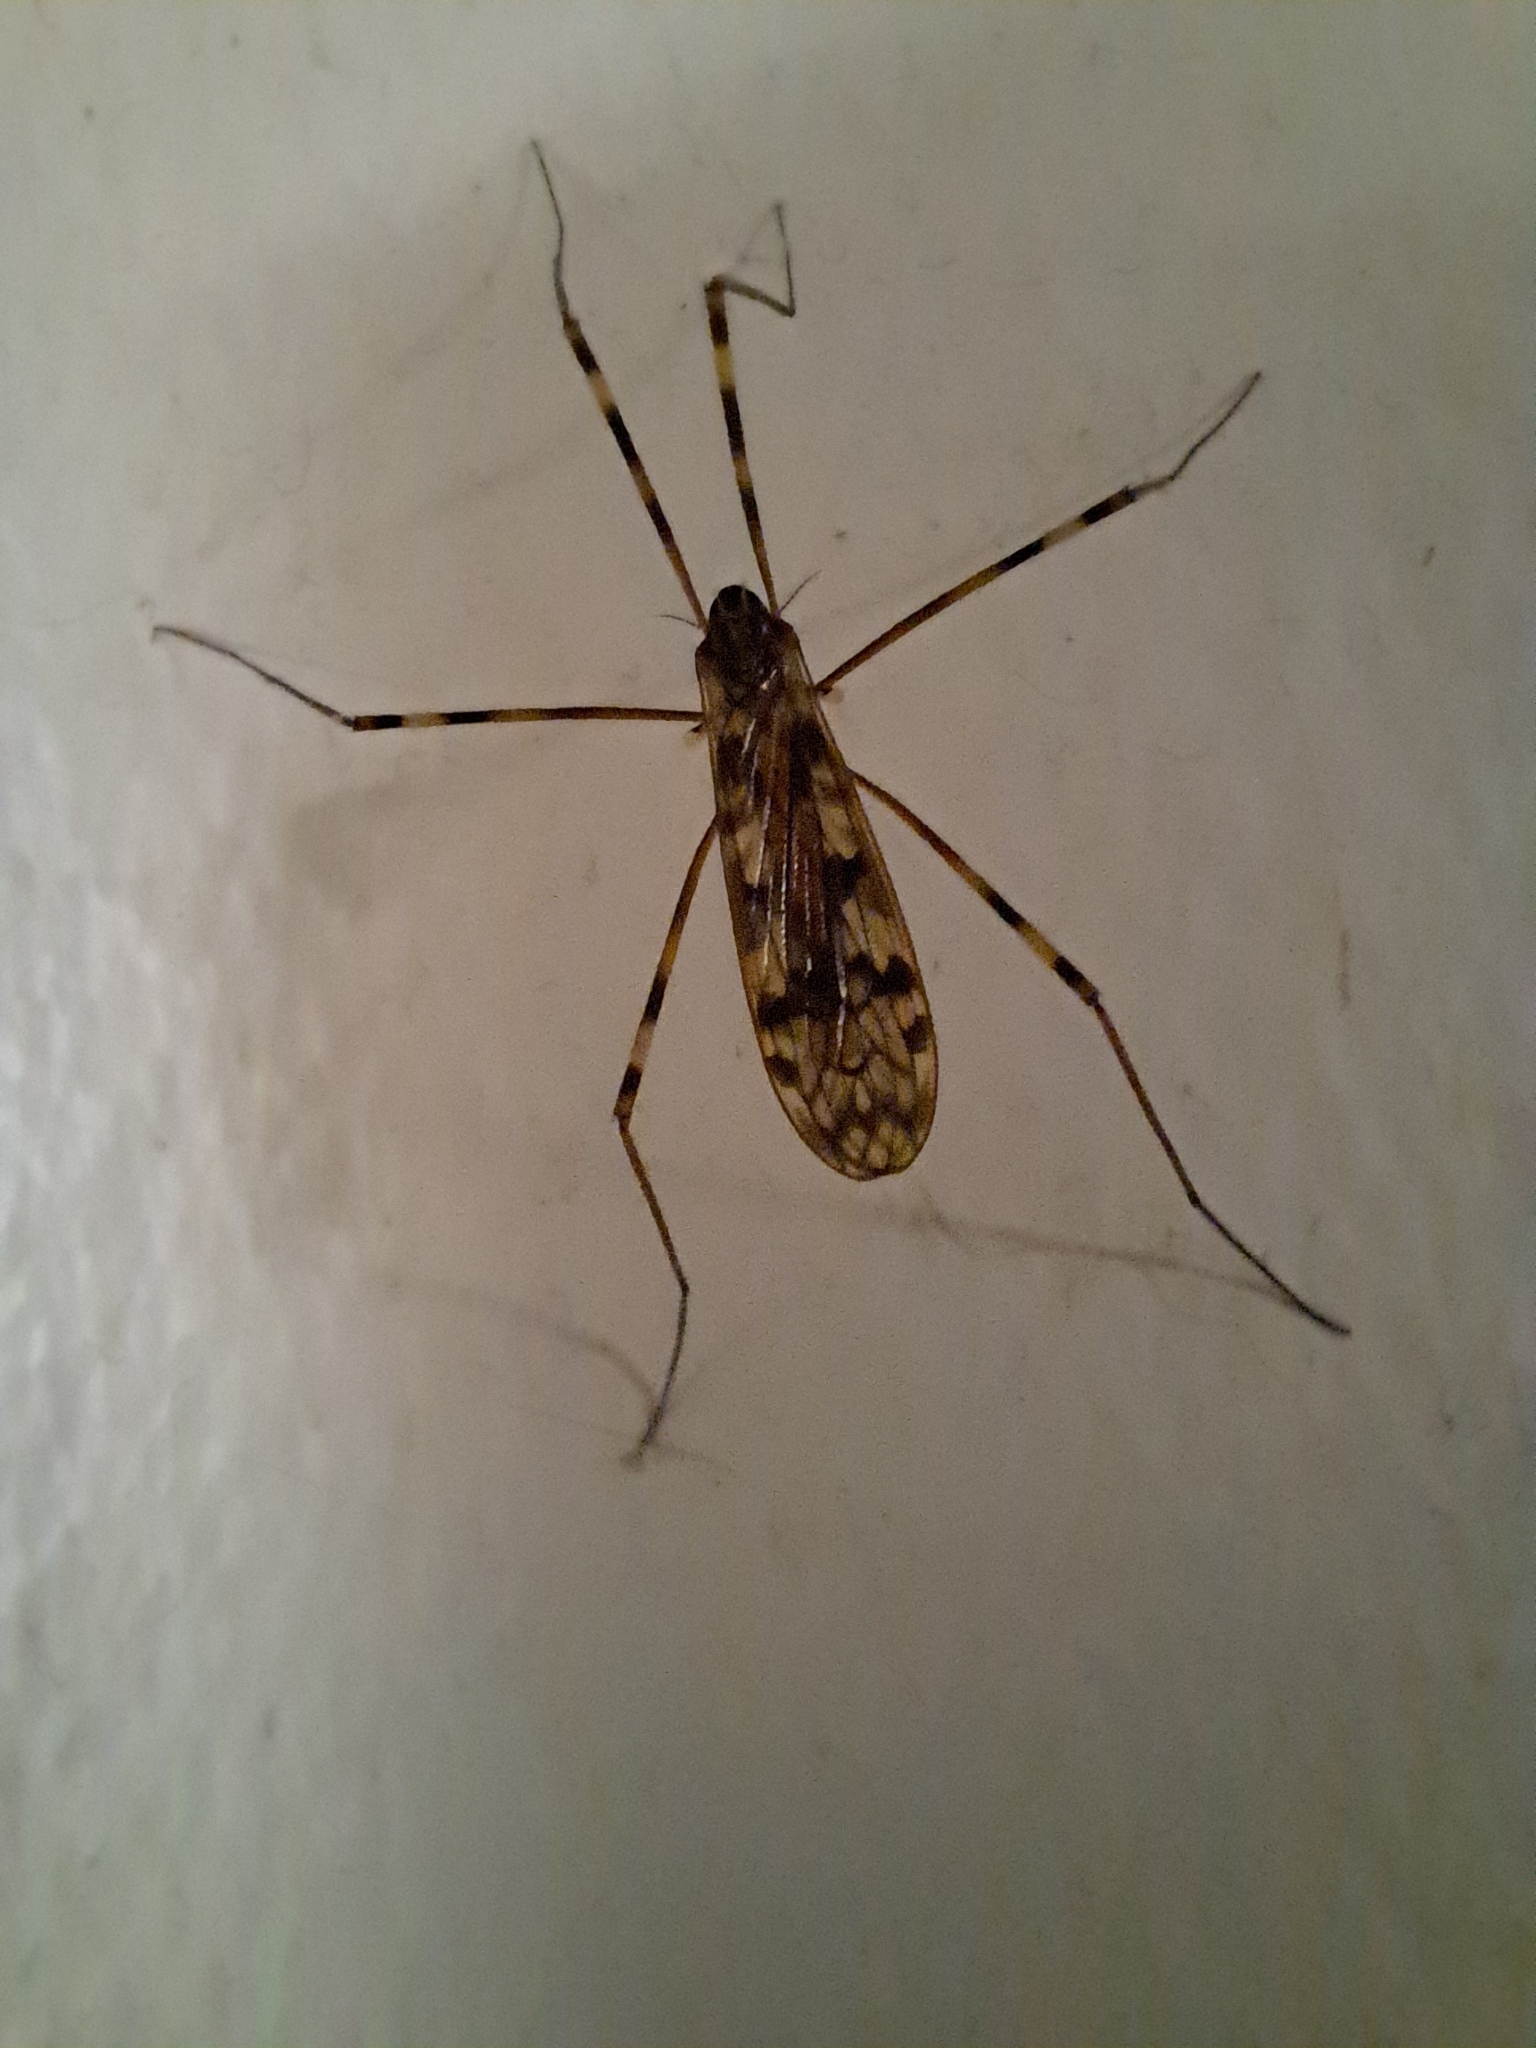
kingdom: Animalia
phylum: Arthropoda
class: Insecta
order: Diptera
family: Limoniidae
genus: Metalimnobia
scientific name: Metalimnobia immatura
